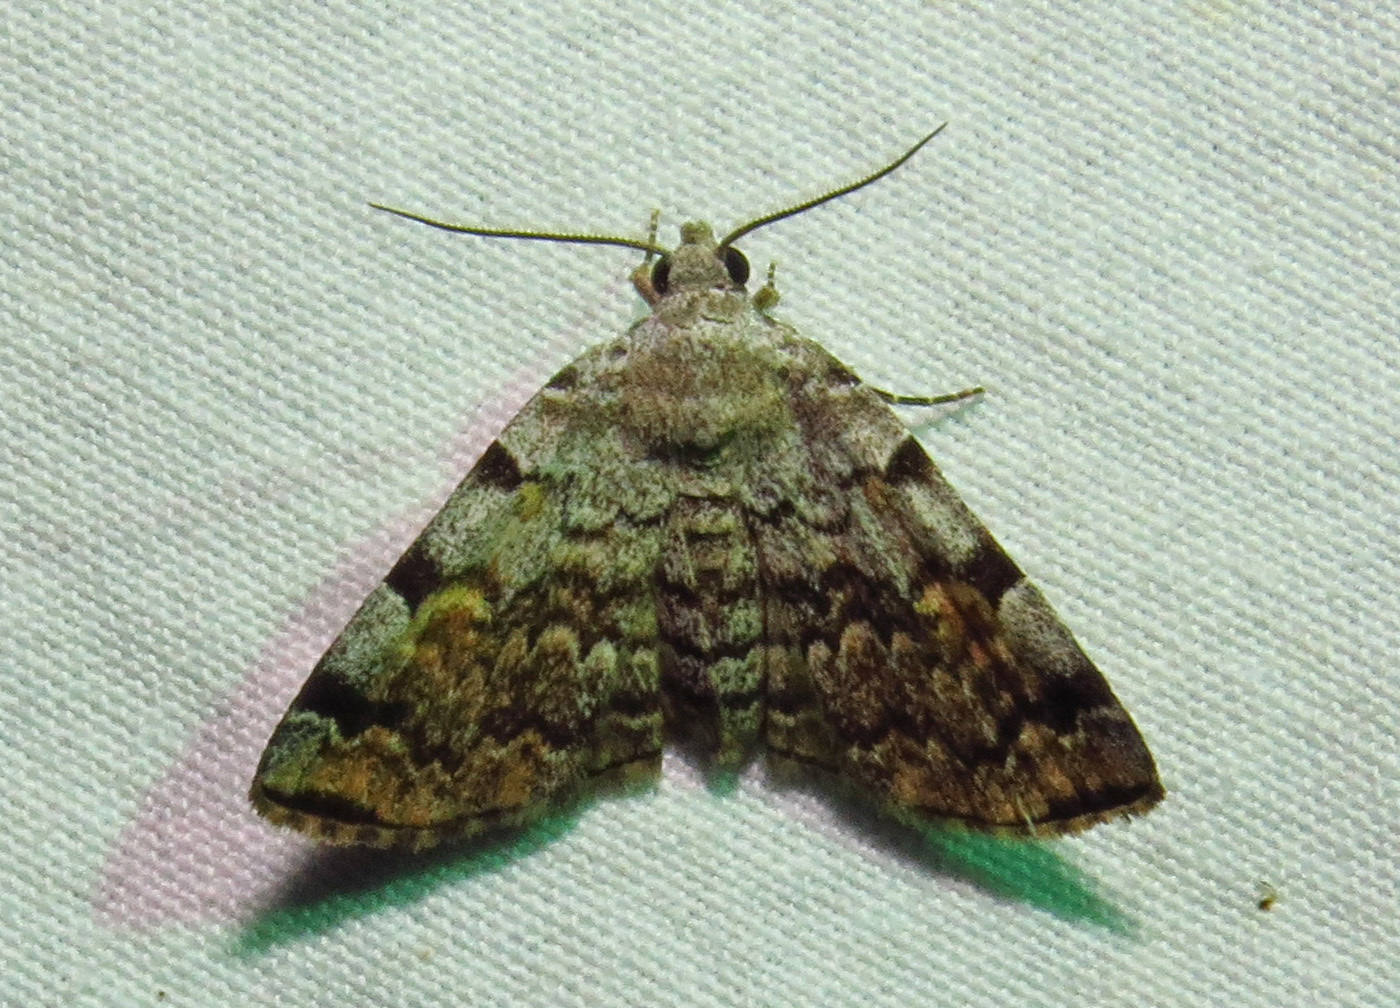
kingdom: Animalia
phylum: Arthropoda
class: Insecta
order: Lepidoptera
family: Erebidae
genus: Idia
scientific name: Idia americalis
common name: American idia moth
